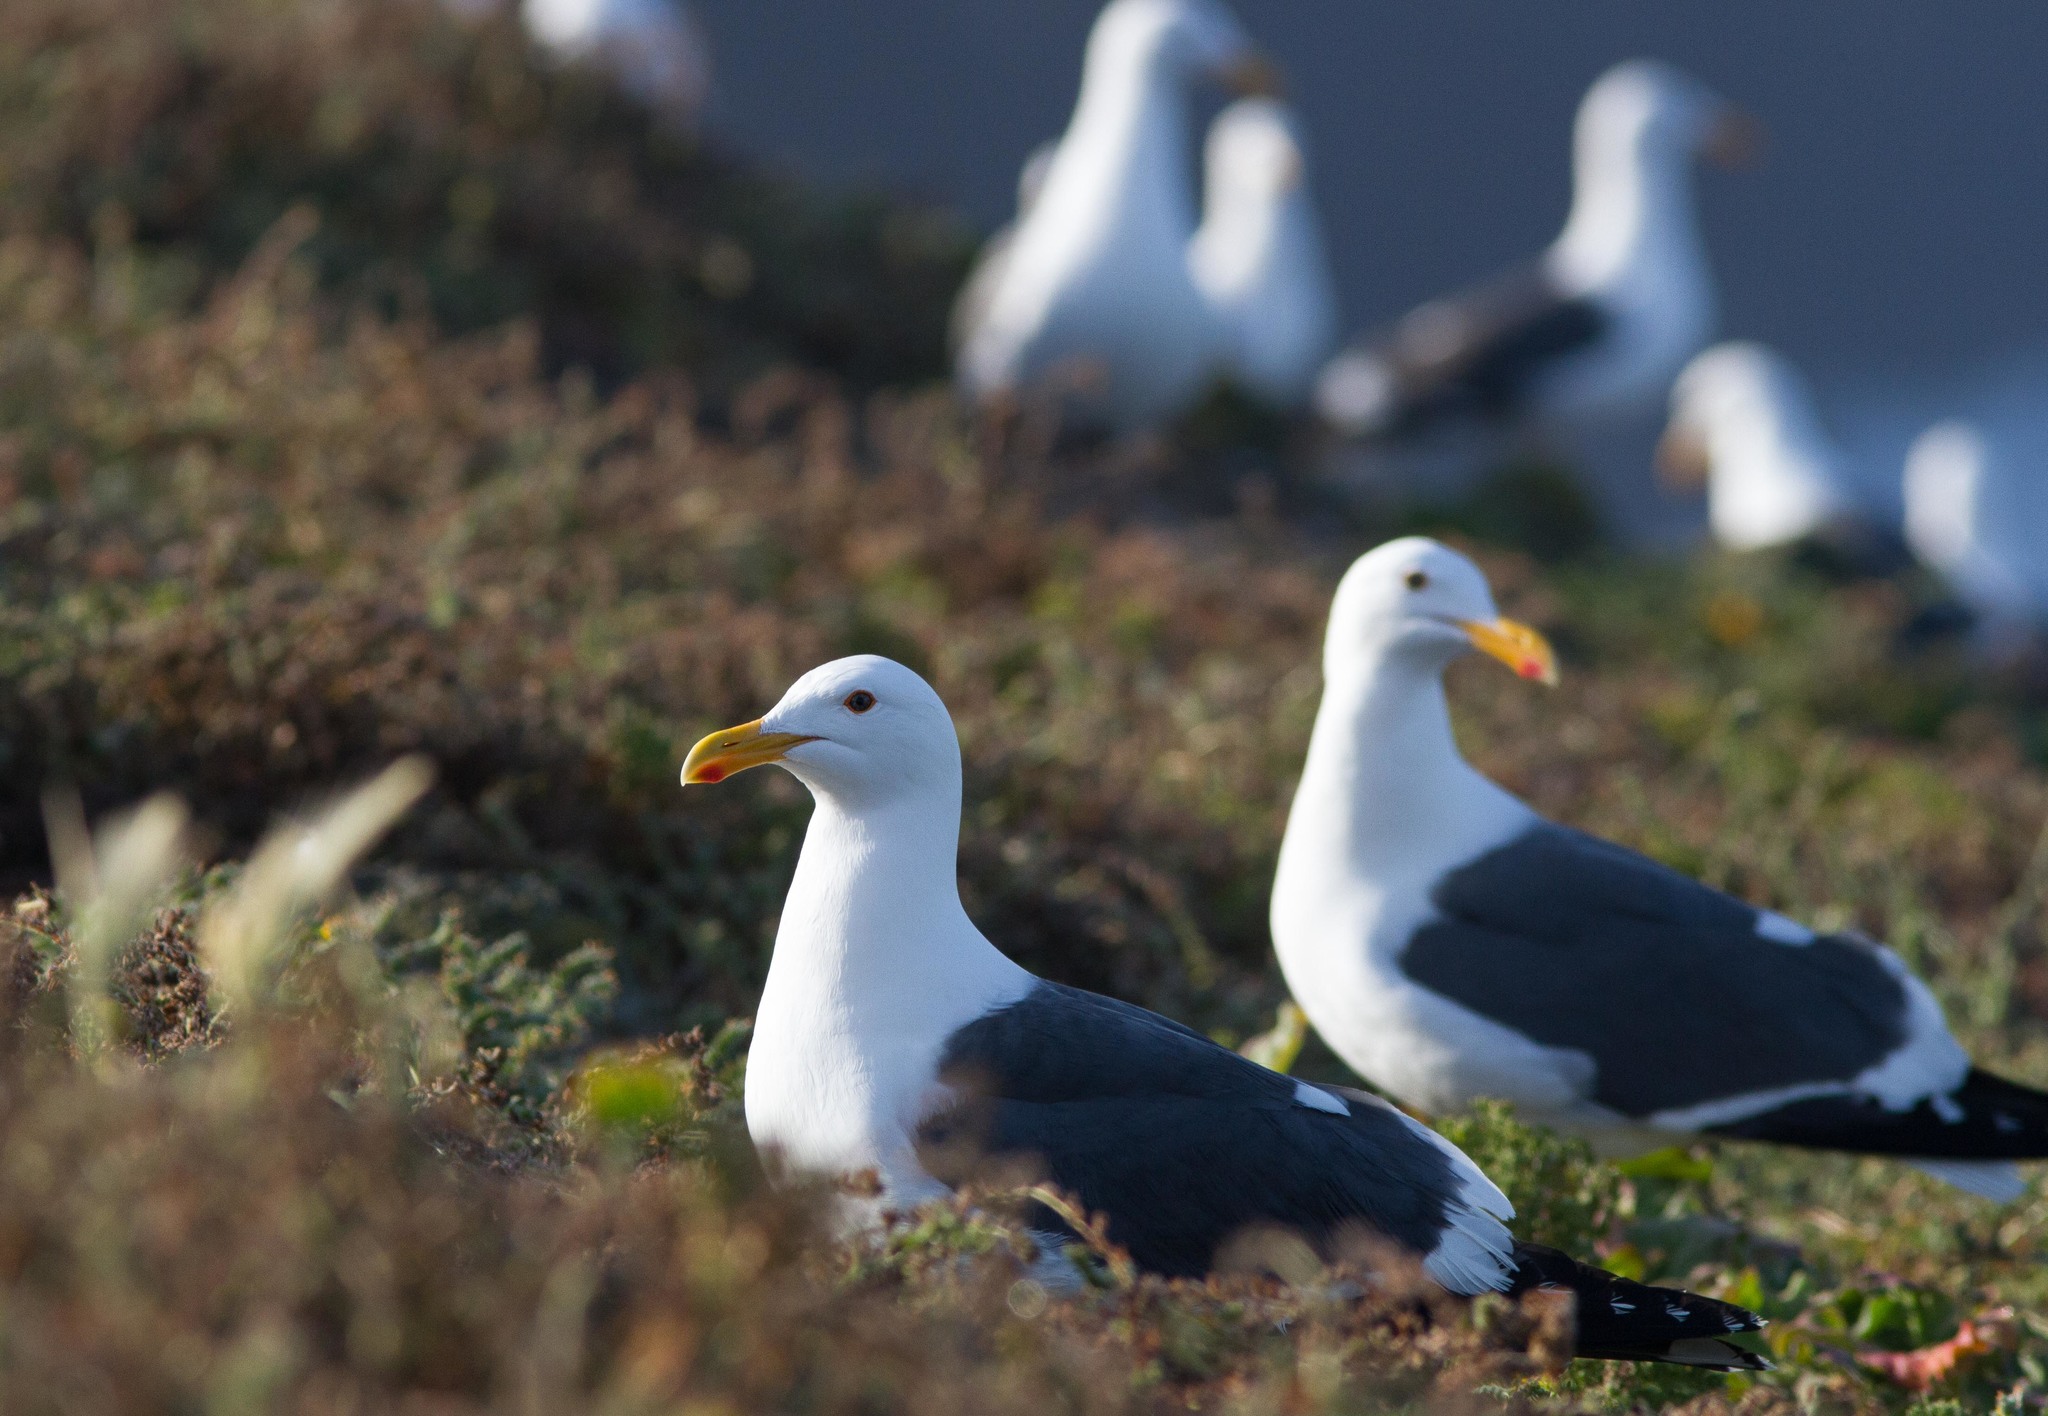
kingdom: Animalia
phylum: Chordata
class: Aves
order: Charadriiformes
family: Laridae
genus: Larus
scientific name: Larus occidentalis
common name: Western gull
